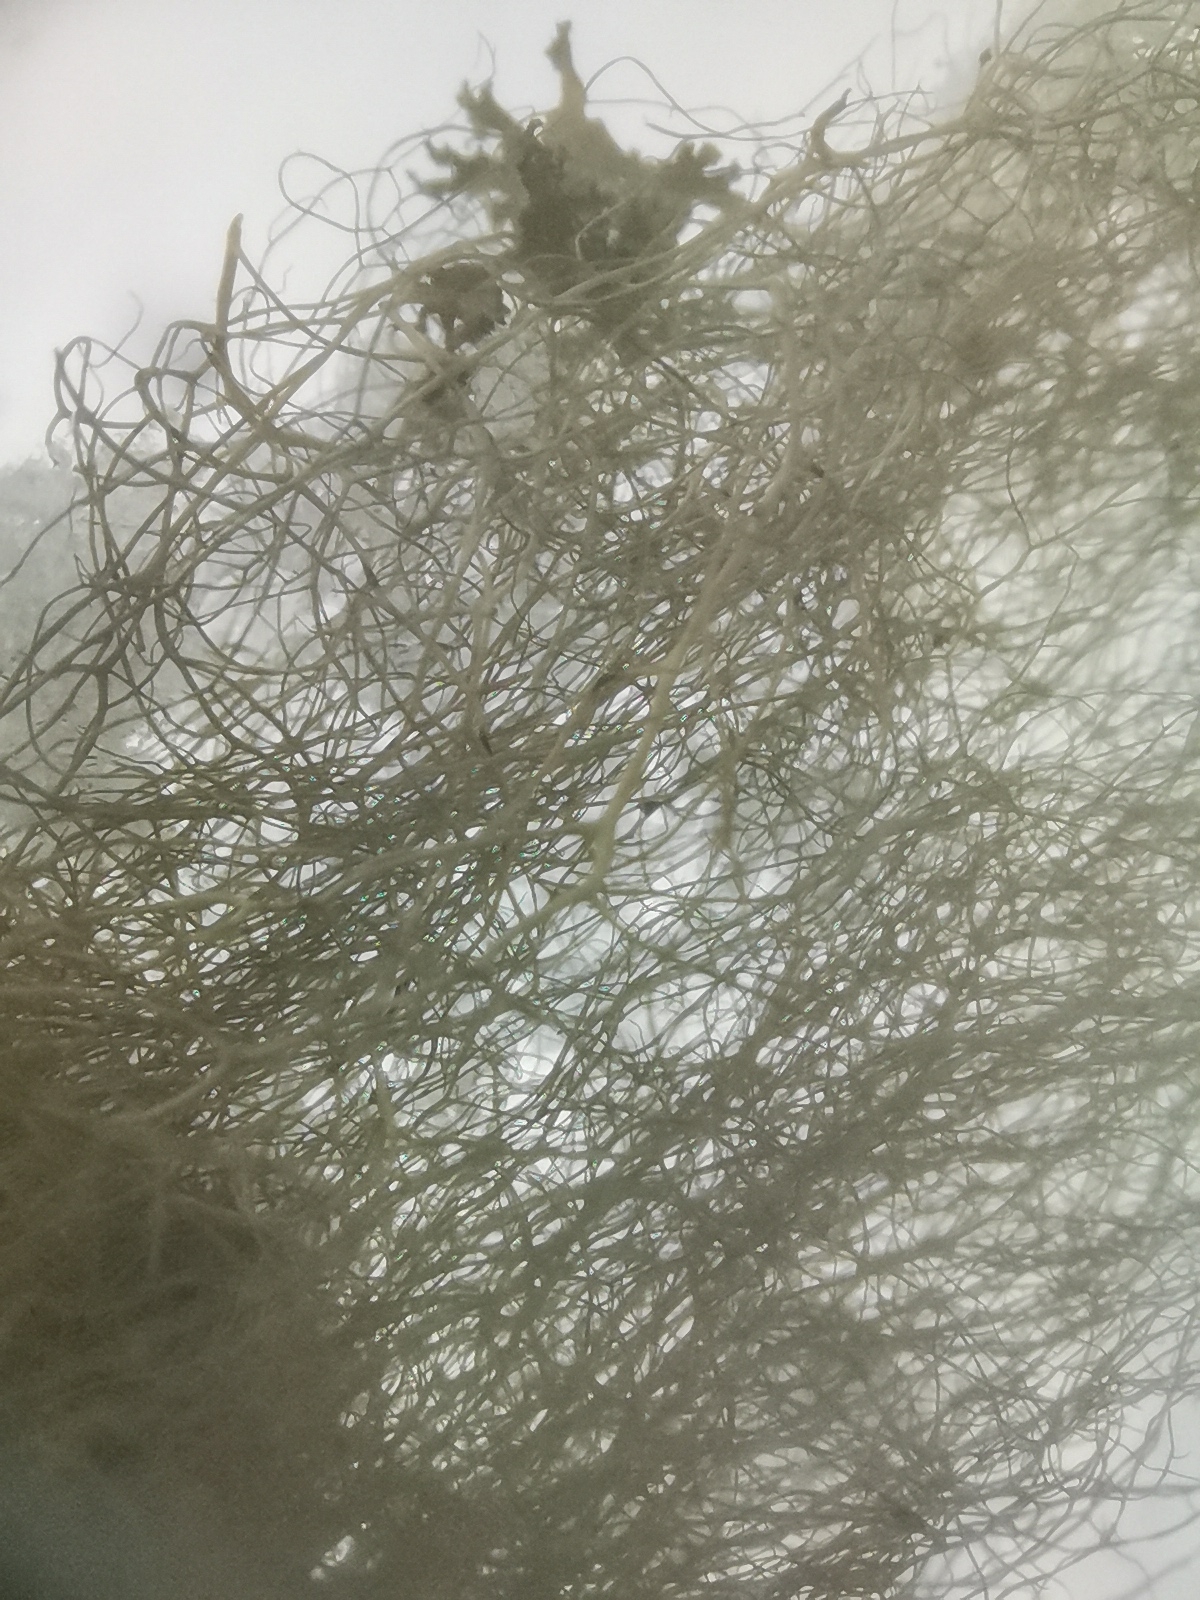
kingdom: Fungi
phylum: Ascomycota
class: Lecanoromycetes
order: Lecanorales
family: Parmeliaceae
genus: Bryoria
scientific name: Bryoria fuscescens
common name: Pale-footed horsehair lichen
